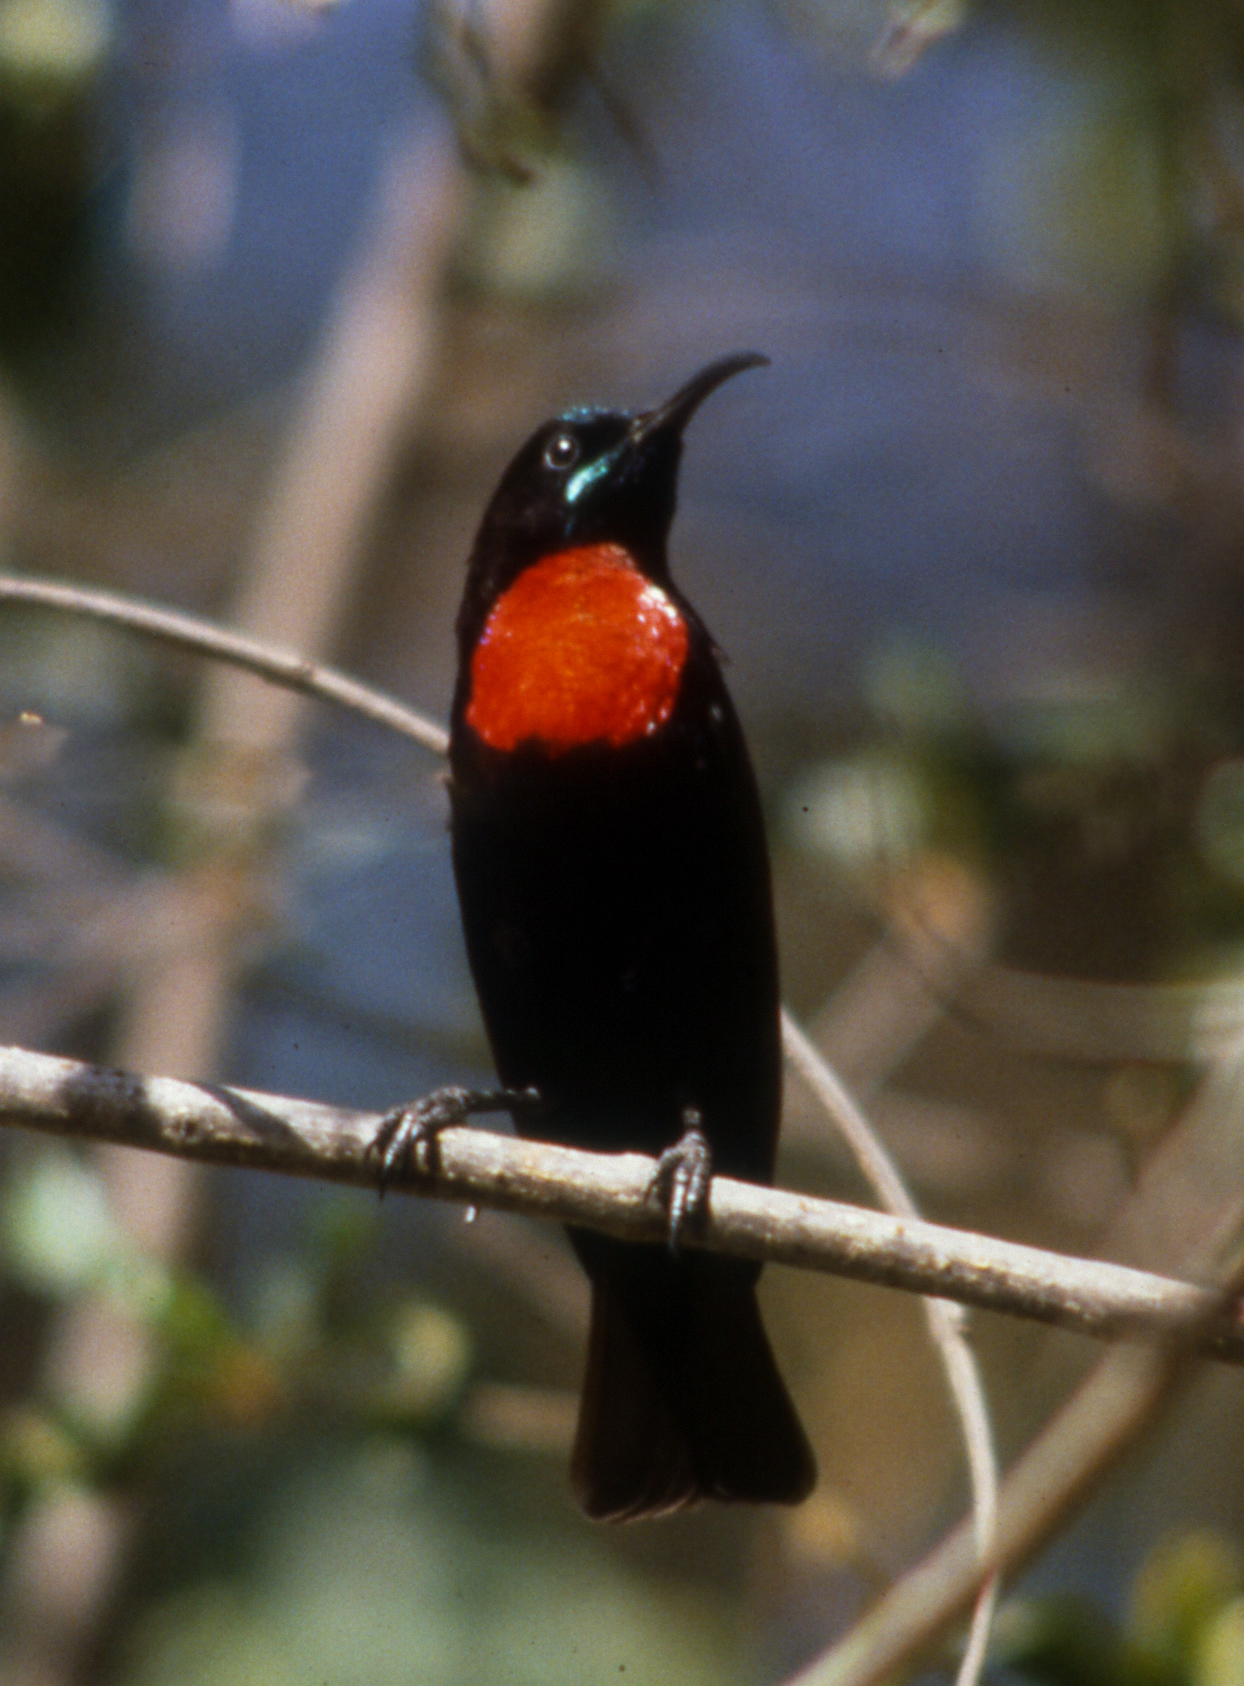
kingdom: Animalia
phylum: Chordata
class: Aves
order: Passeriformes
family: Nectariniidae
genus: Chalcomitra
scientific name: Chalcomitra hunteri
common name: Hunter's sunbird
